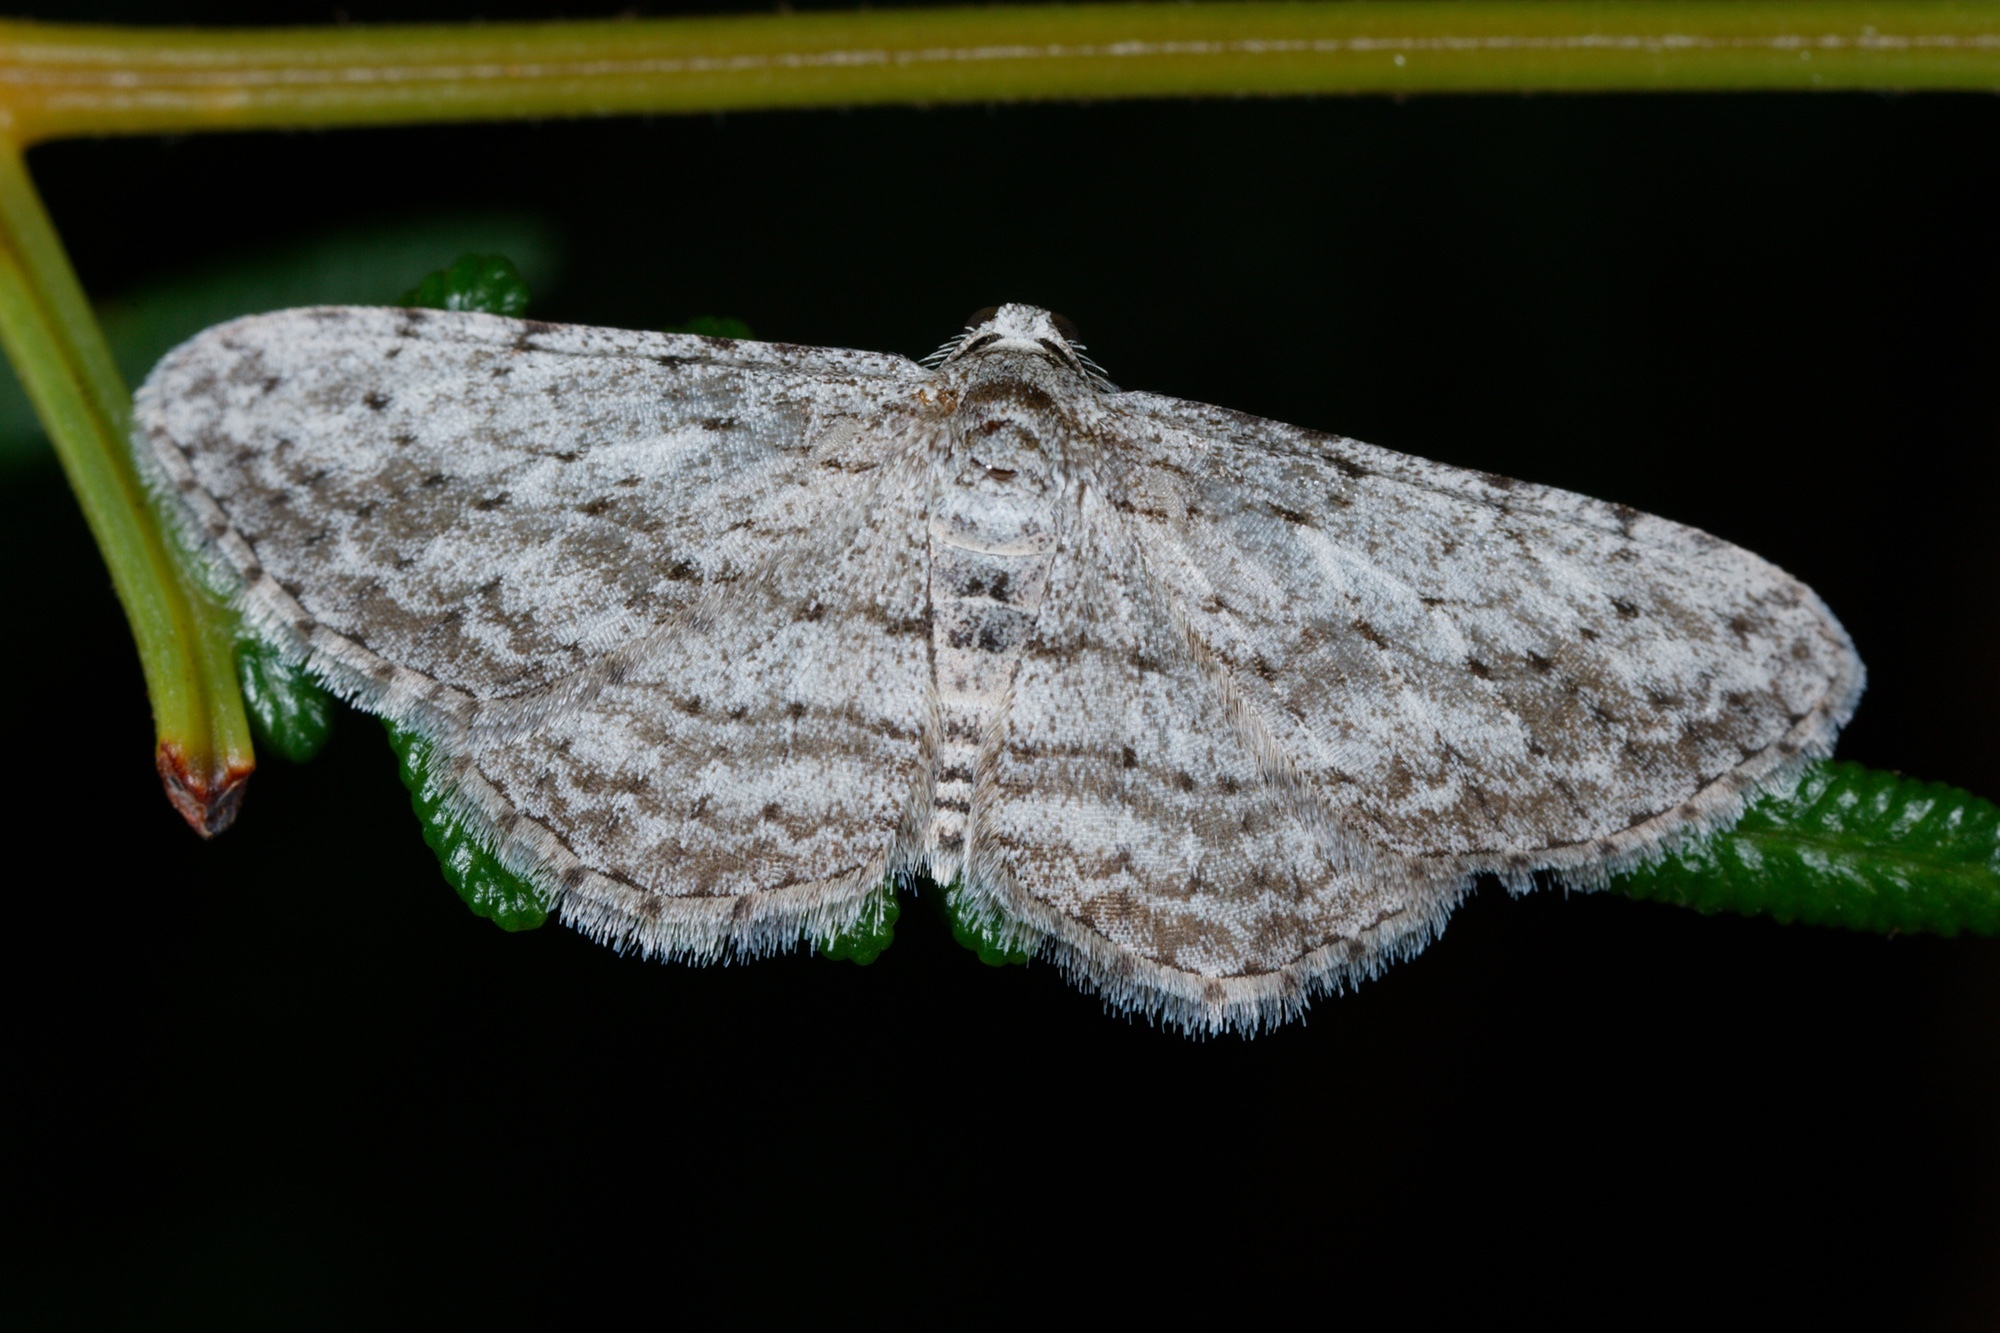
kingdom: Animalia
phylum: Arthropoda
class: Insecta
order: Lepidoptera
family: Geometridae
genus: Phelotis
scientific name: Phelotis cognata
